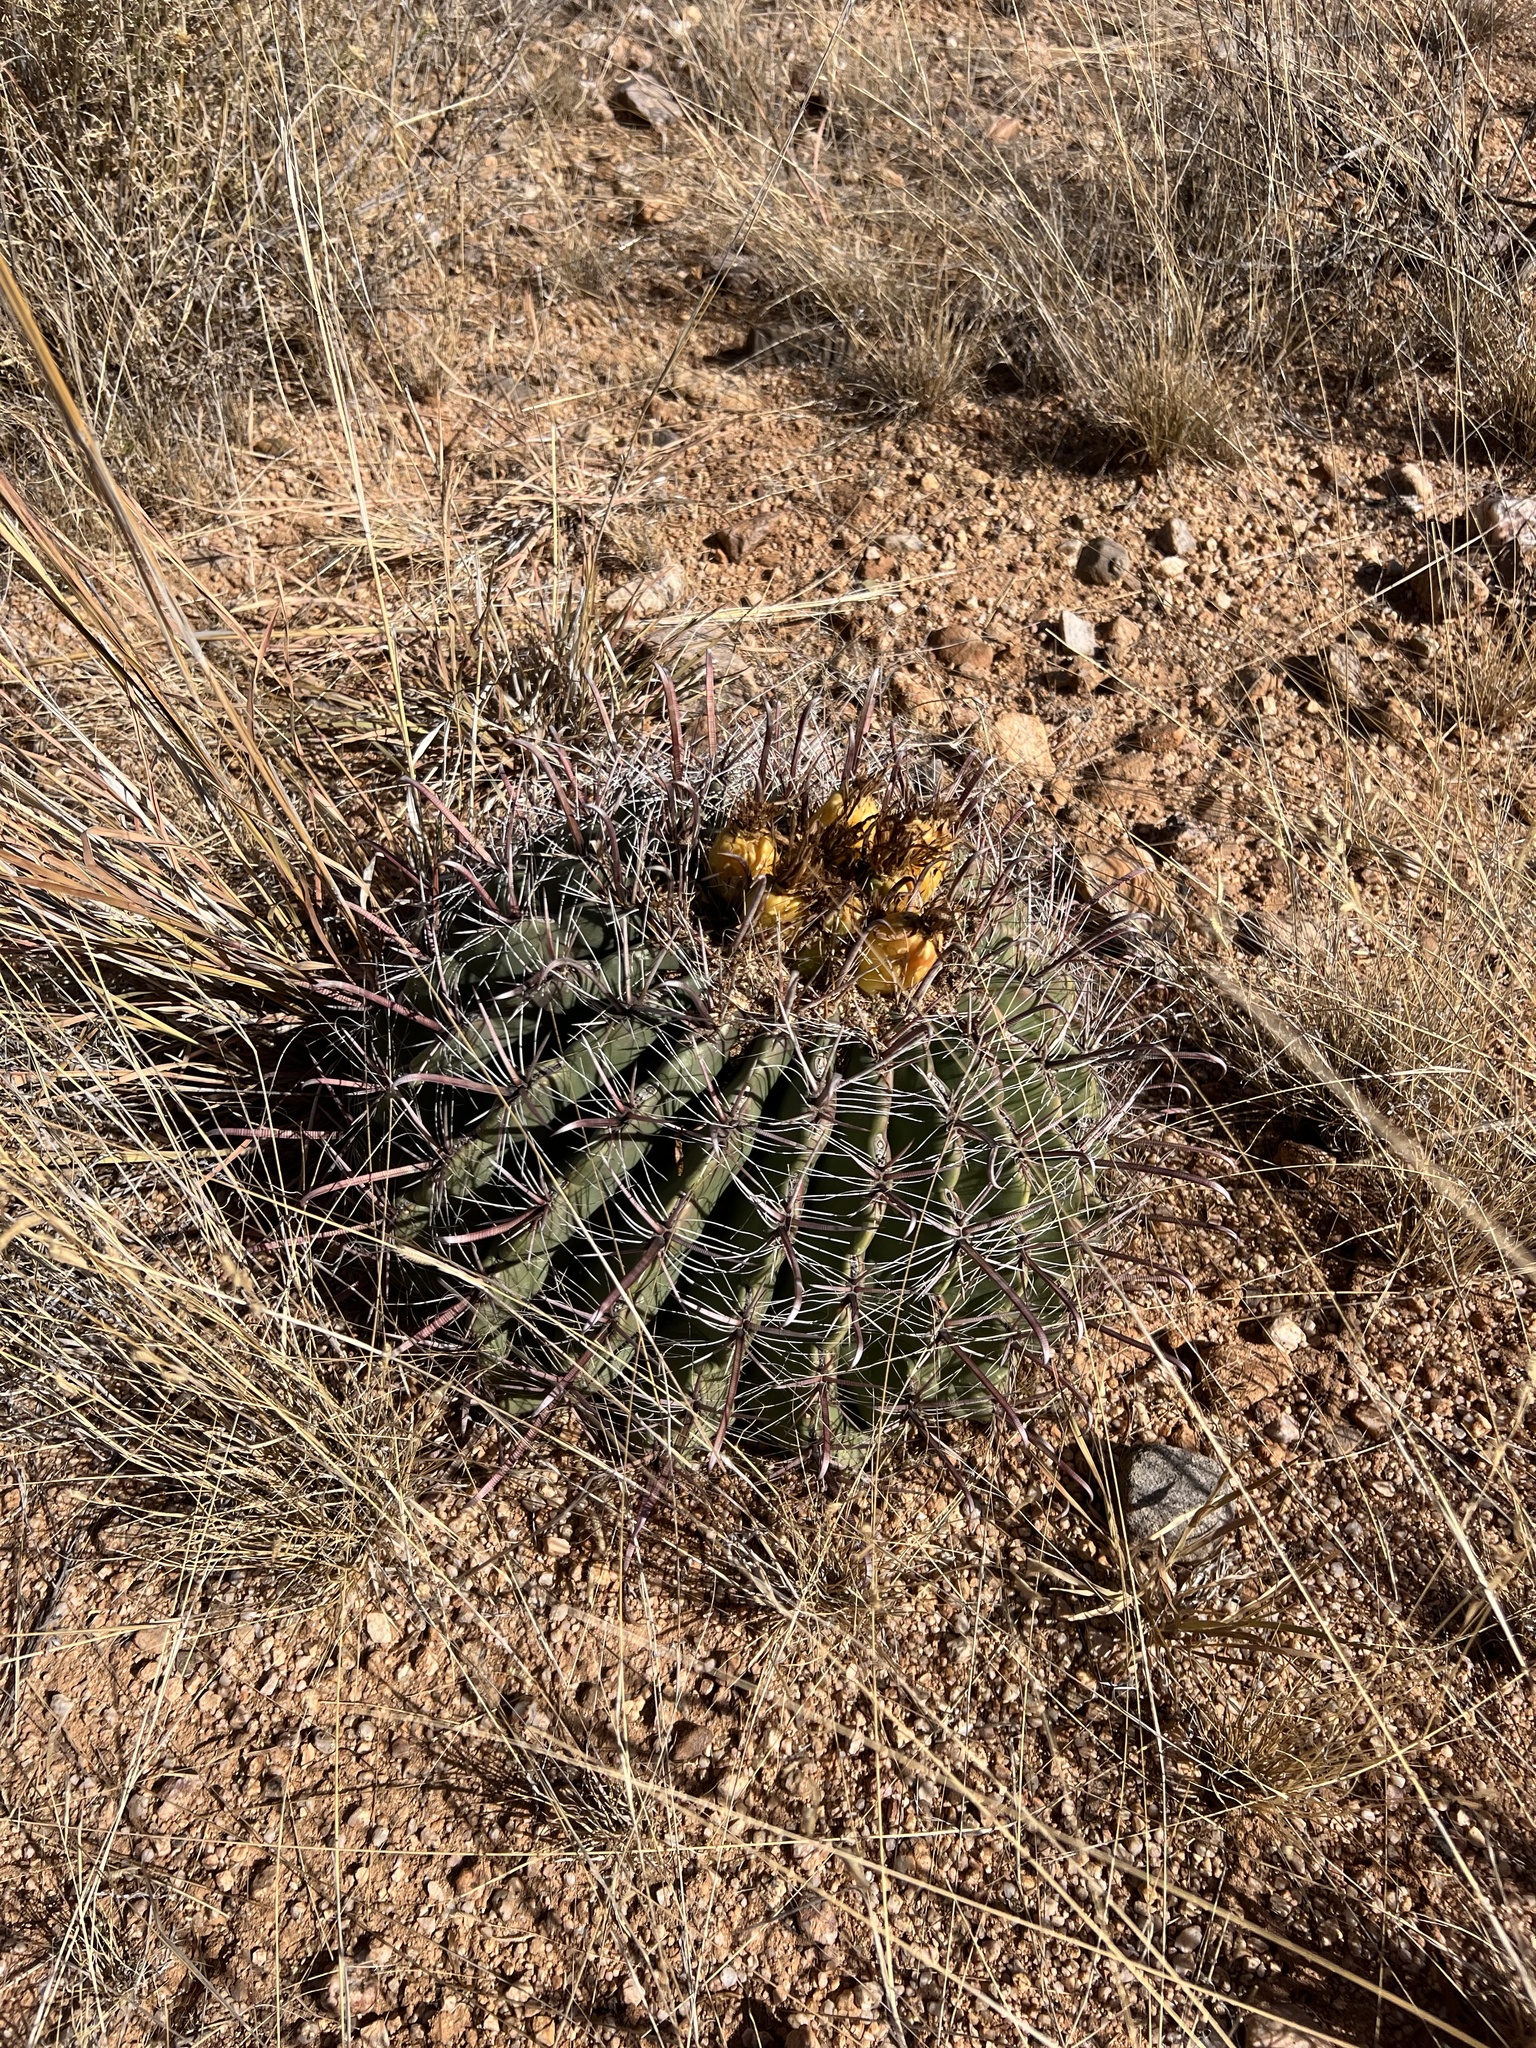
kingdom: Plantae
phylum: Tracheophyta
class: Magnoliopsida
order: Caryophyllales
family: Cactaceae
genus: Ferocactus
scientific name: Ferocactus wislizeni
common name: Candy barrel cactus
